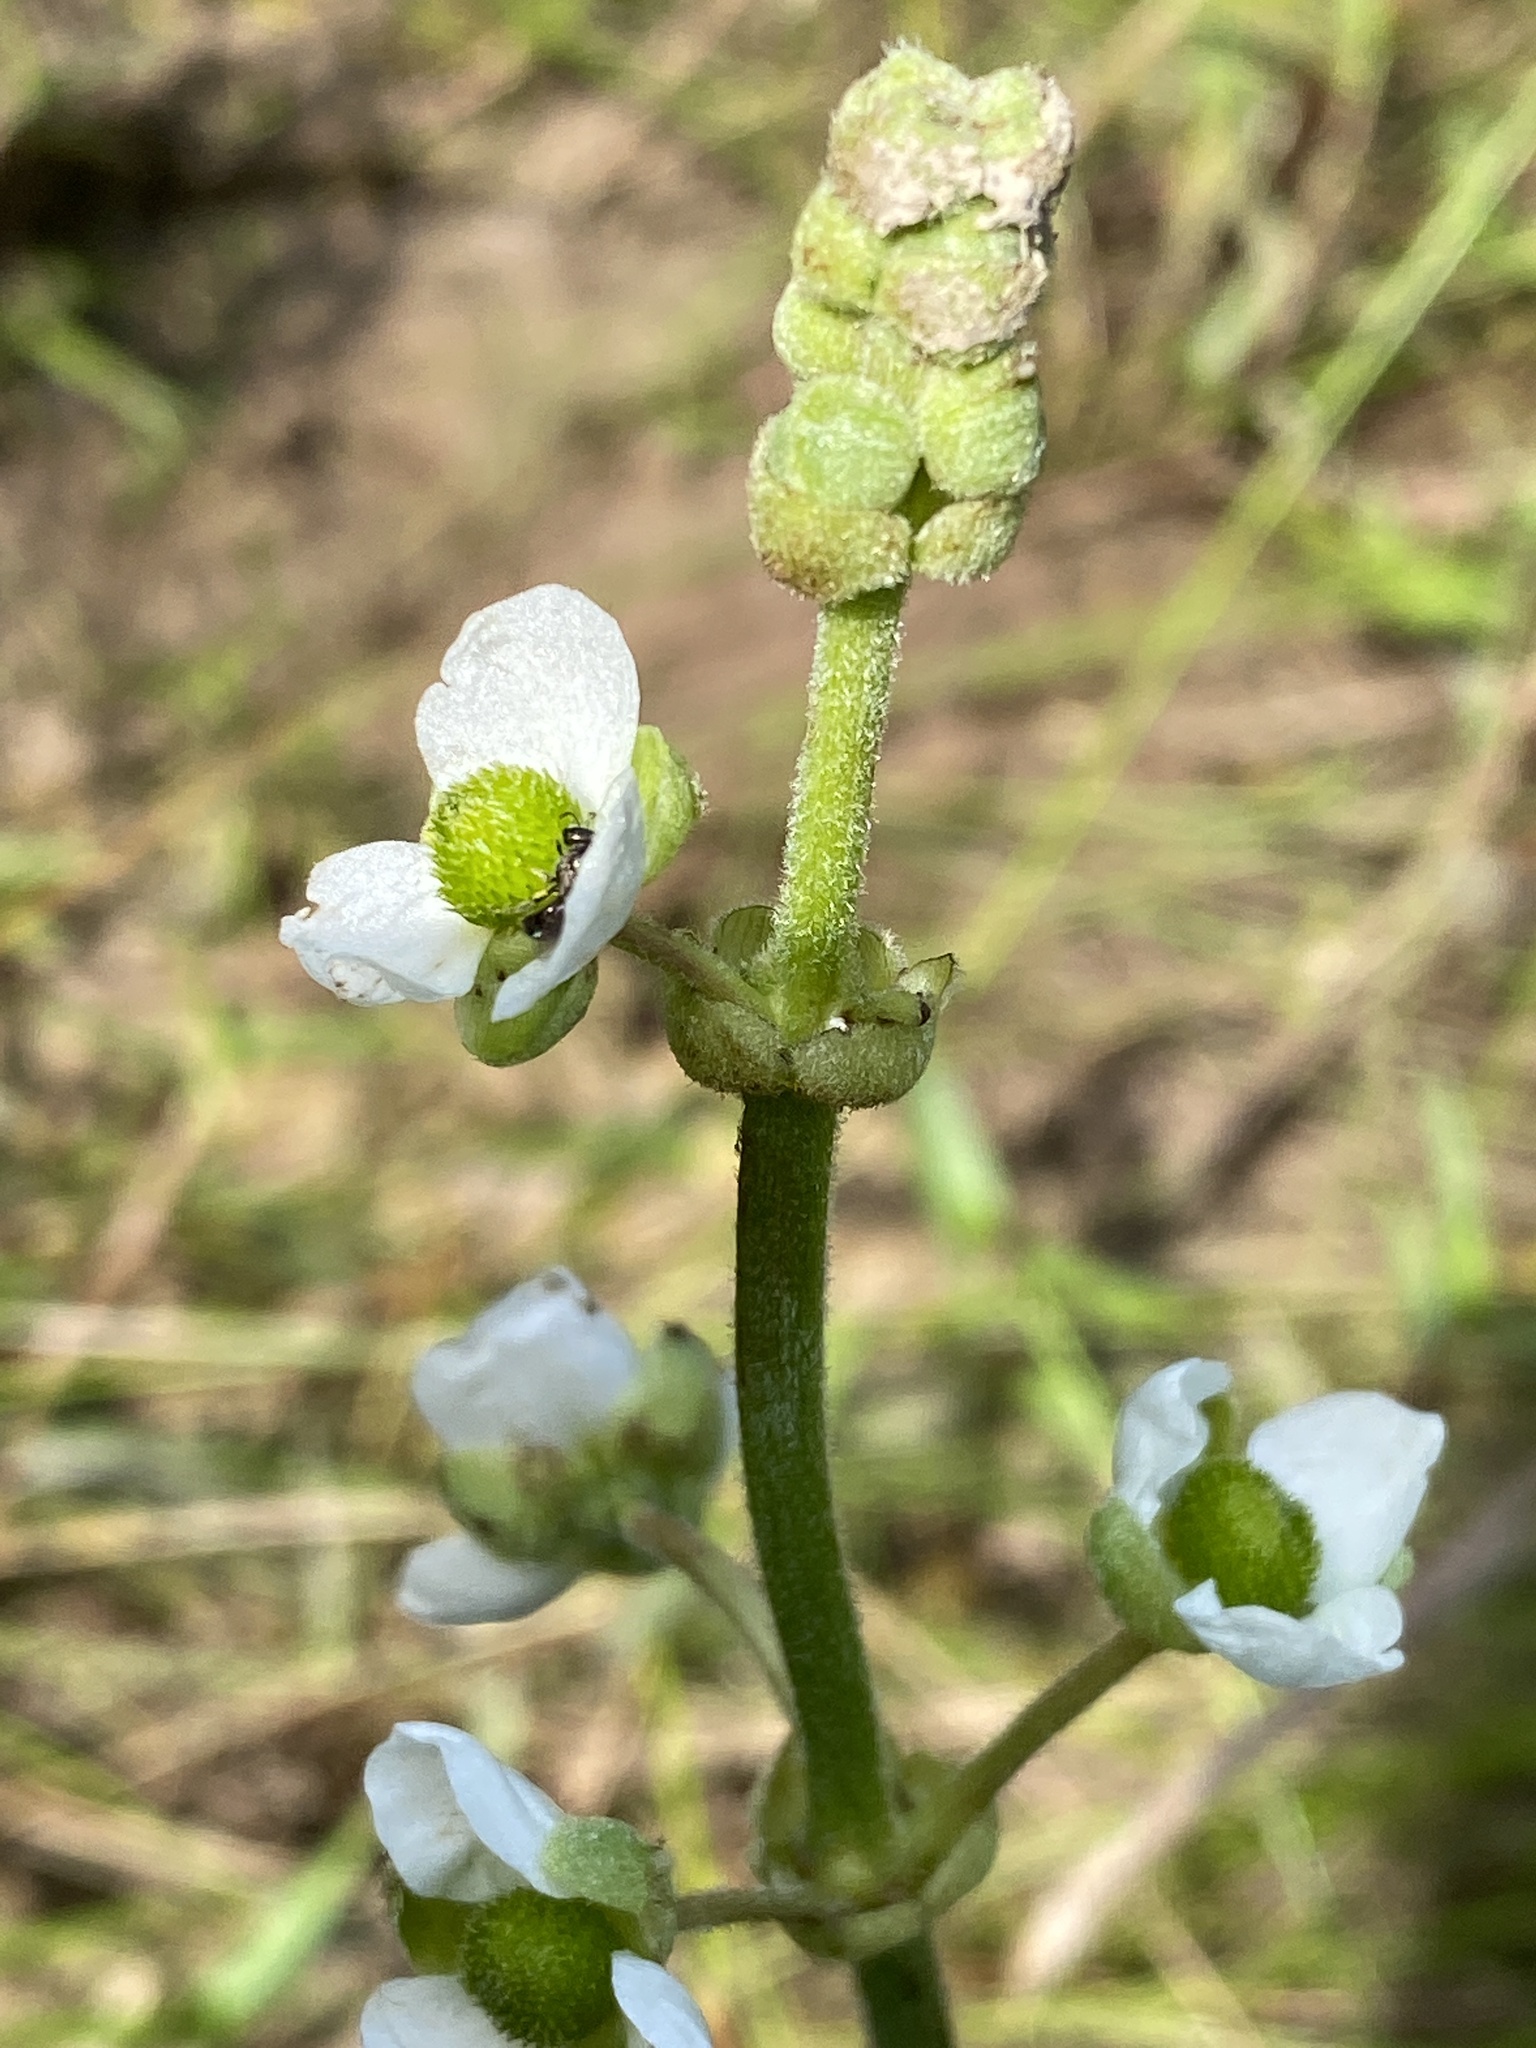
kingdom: Plantae
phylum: Tracheophyta
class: Liliopsida
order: Alismatales
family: Alismataceae
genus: Sagittaria
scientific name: Sagittaria latifolia
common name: Duck-potato
